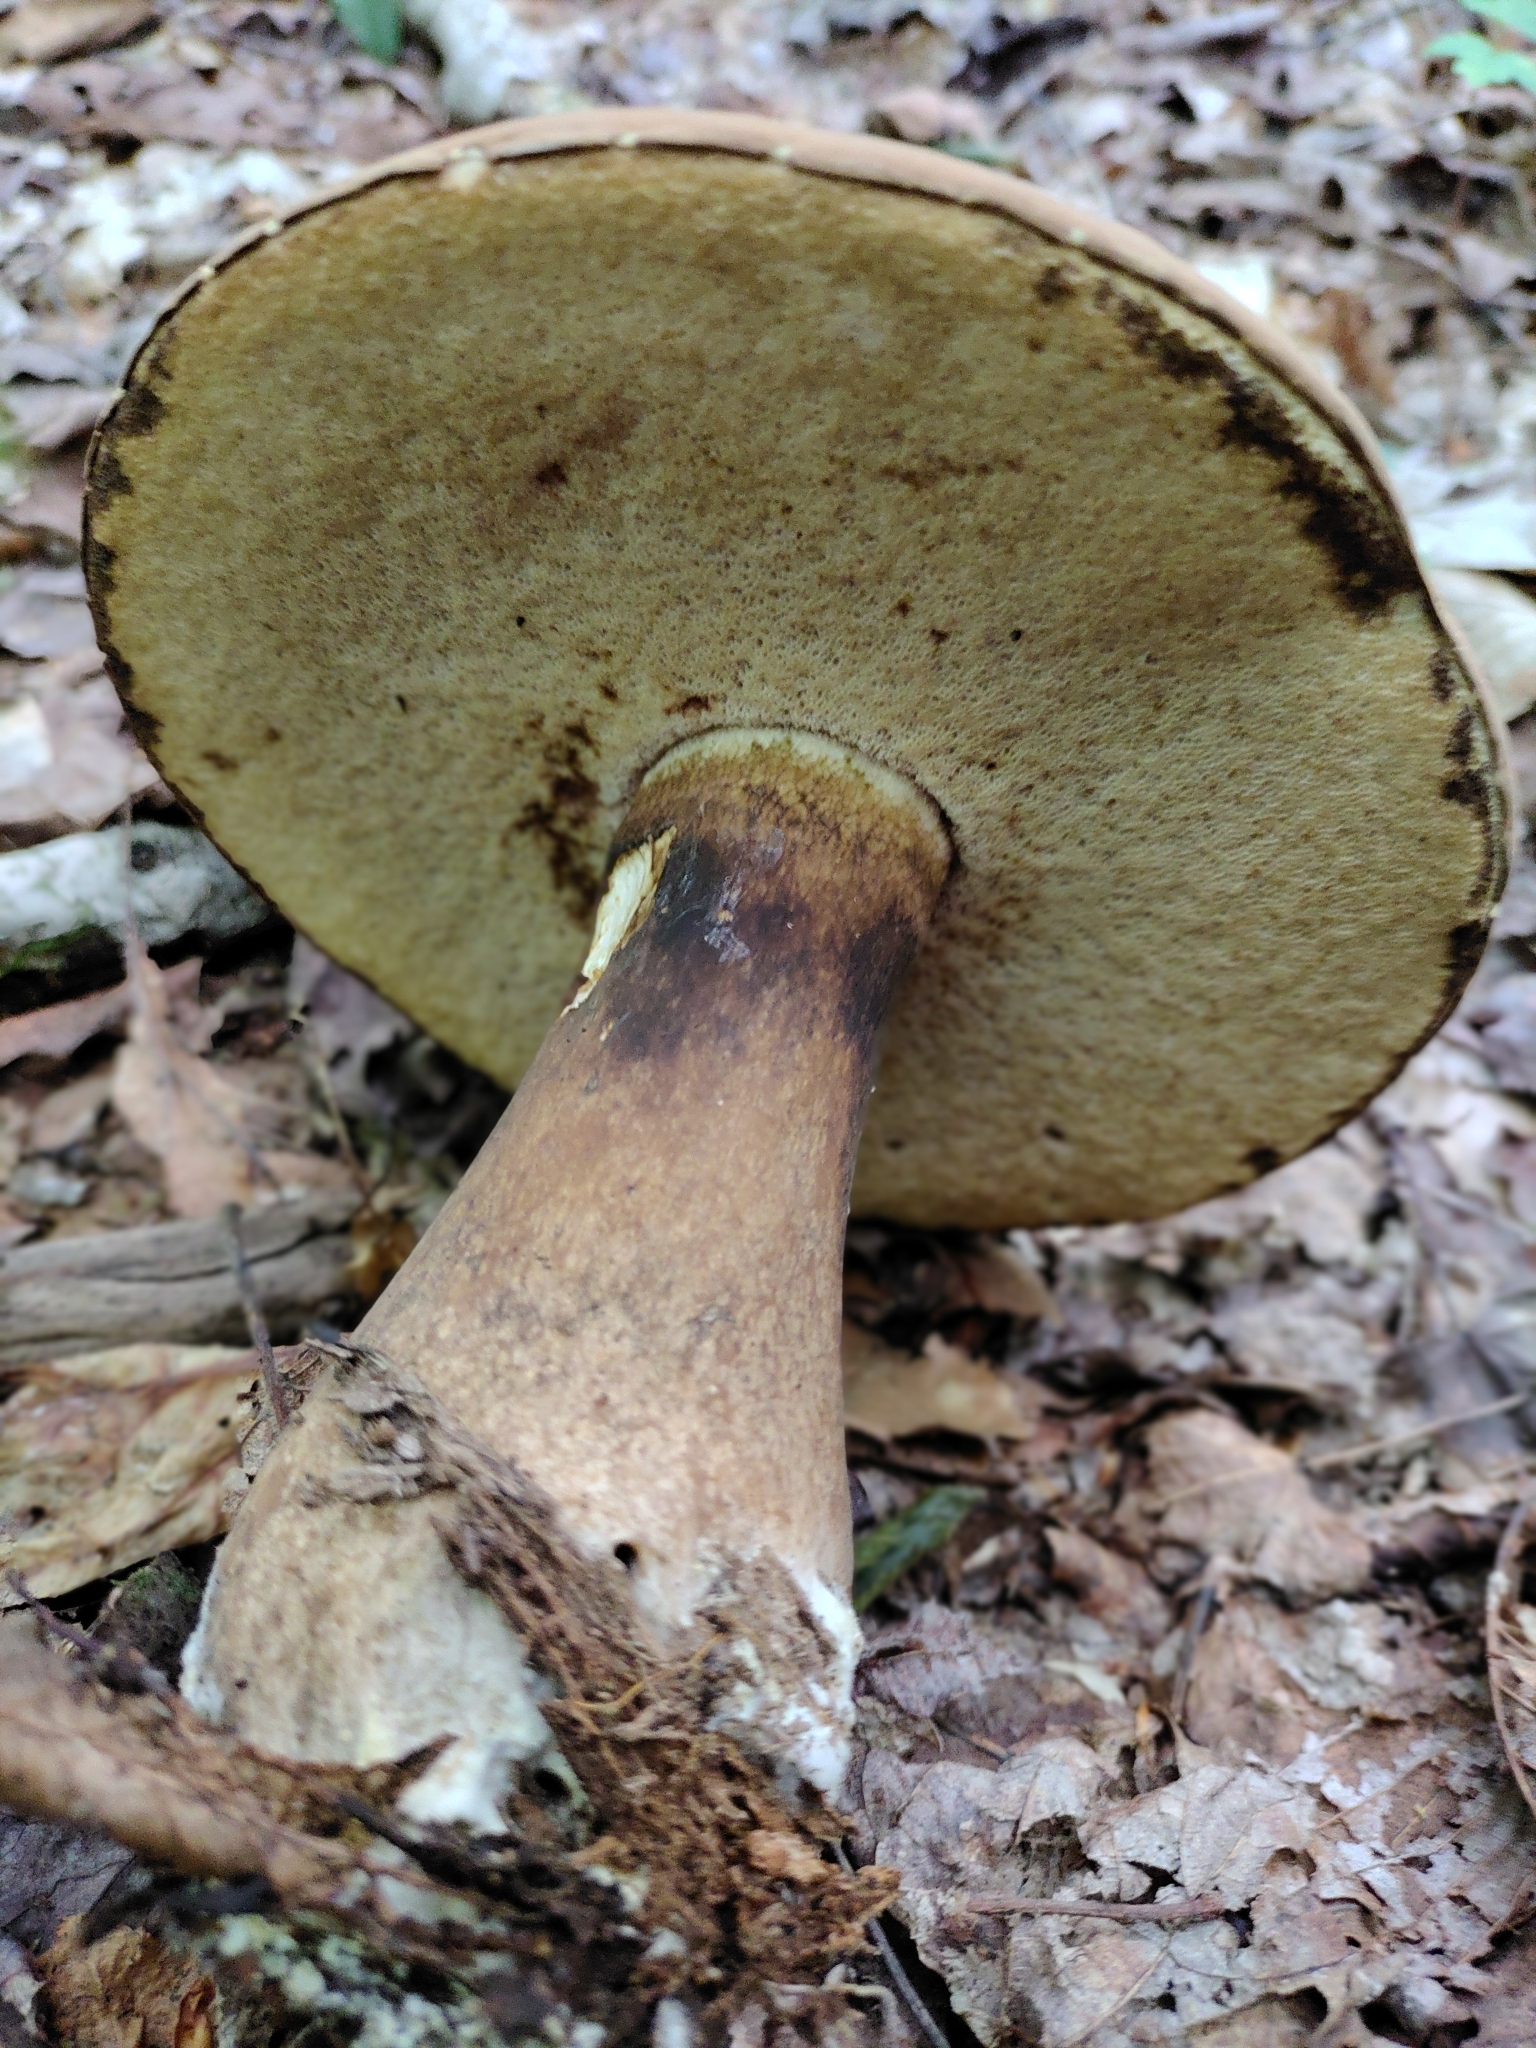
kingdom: Fungi
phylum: Basidiomycota
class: Agaricomycetes
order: Boletales
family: Boletaceae
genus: Tylopilus
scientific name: Tylopilus rubrobrunneus
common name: Reddish brown bitter bolete
